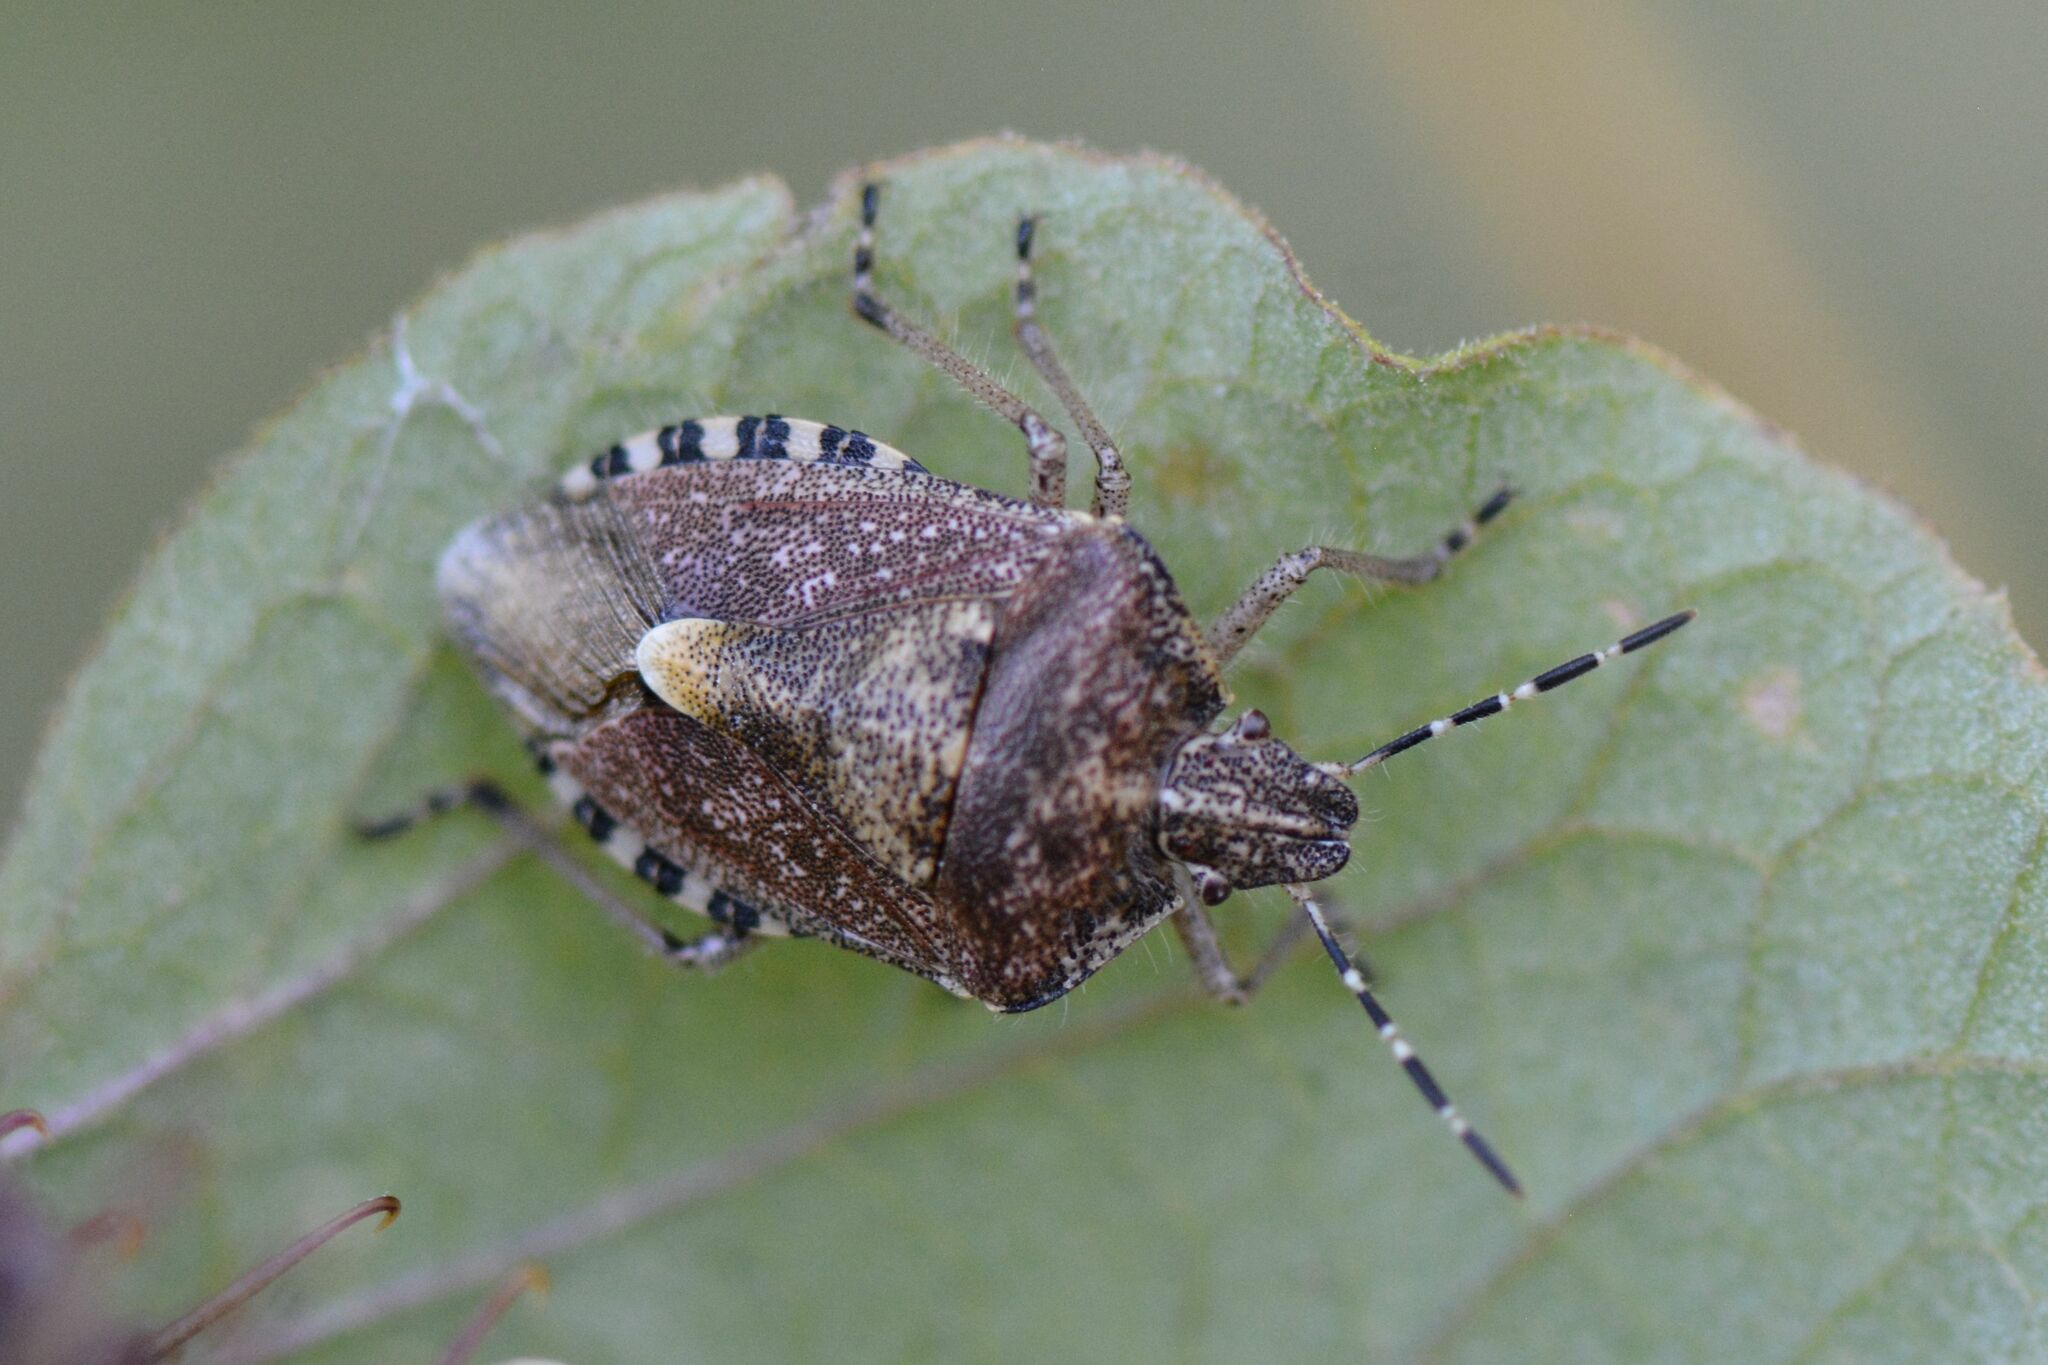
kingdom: Animalia
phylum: Arthropoda
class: Insecta
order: Hemiptera
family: Pentatomidae
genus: Dolycoris
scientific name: Dolycoris baccarum
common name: Sloe bug
